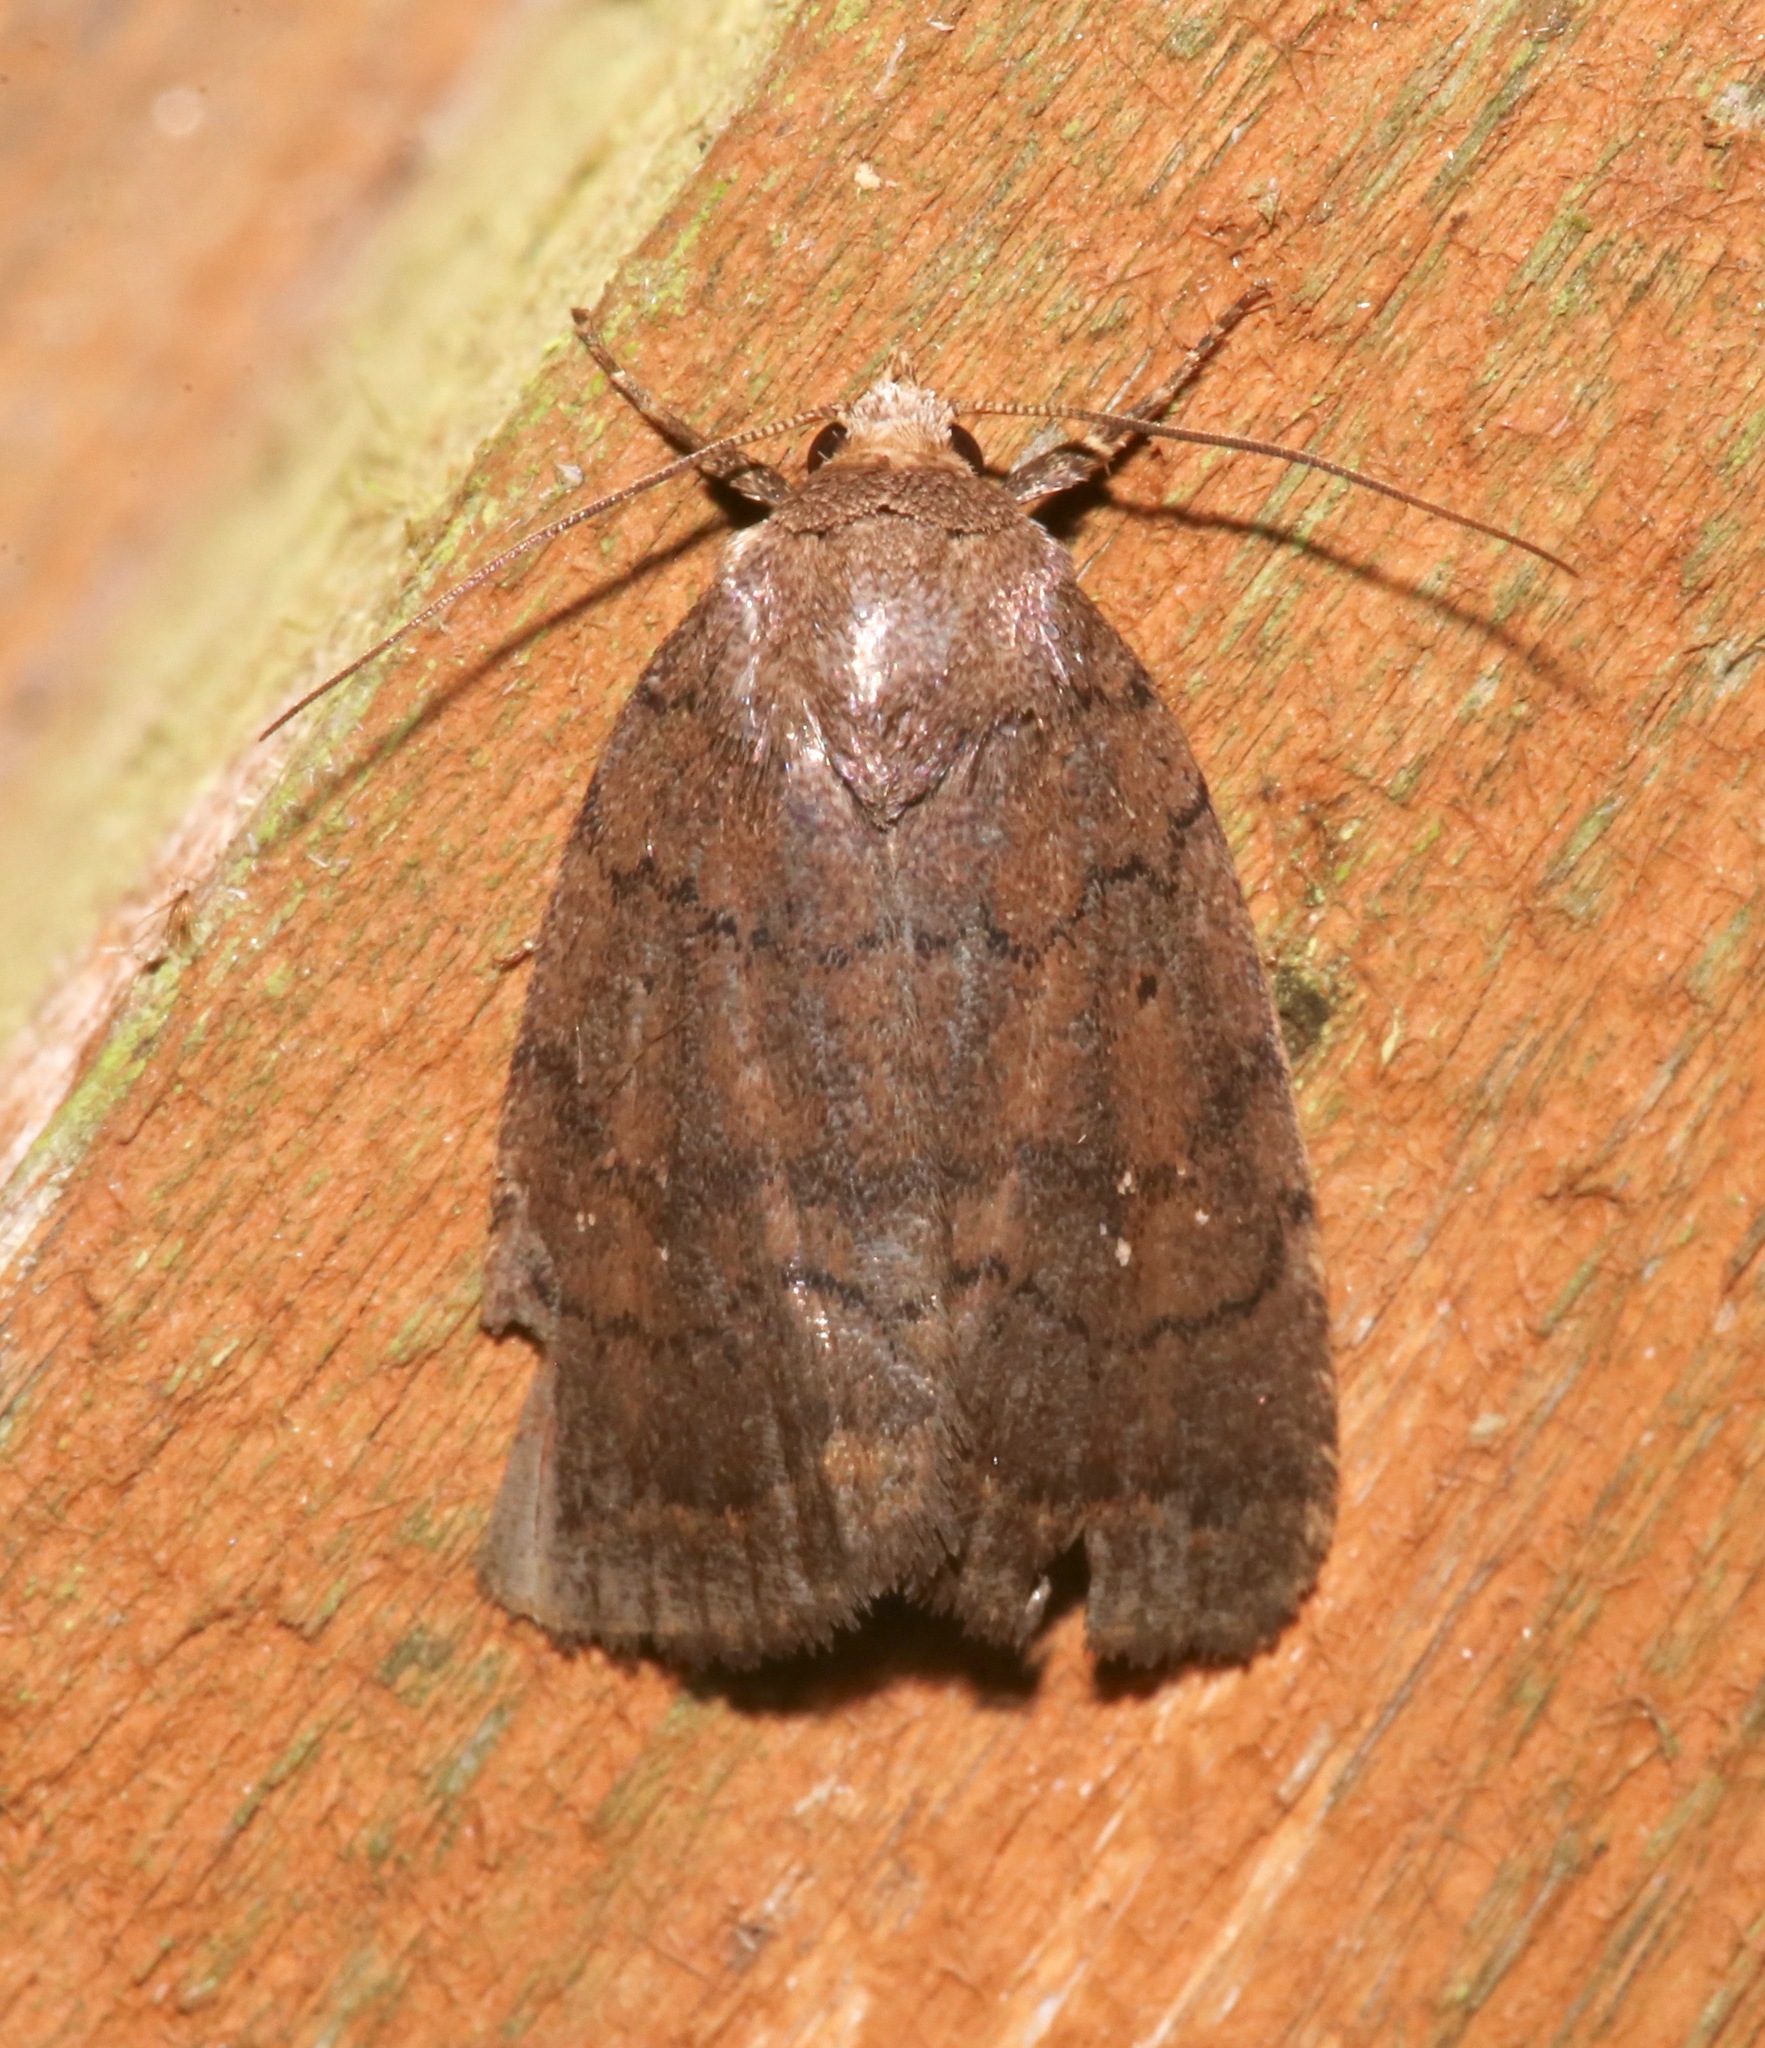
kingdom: Animalia
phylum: Arthropoda
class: Insecta
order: Lepidoptera
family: Noctuidae
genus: Athetis
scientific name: Athetis tarda
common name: Slowpoke moth
